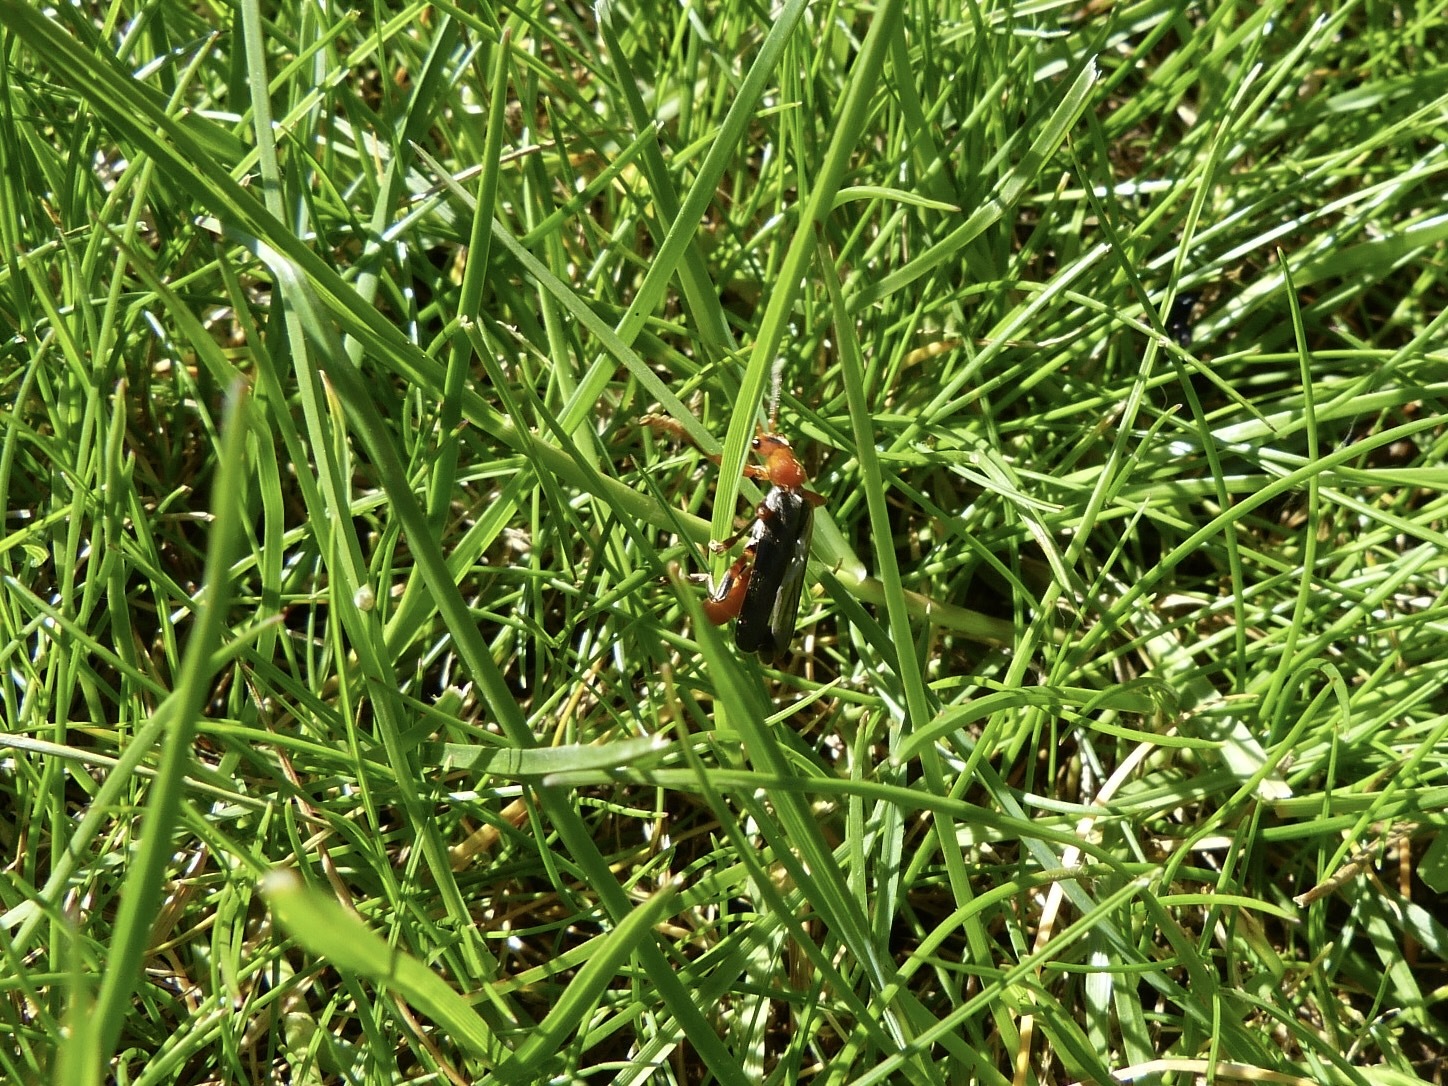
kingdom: Animalia
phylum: Arthropoda
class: Insecta
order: Coleoptera
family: Cantharidae
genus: Cantharis
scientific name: Cantharis livida
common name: Livid soldier beetle
